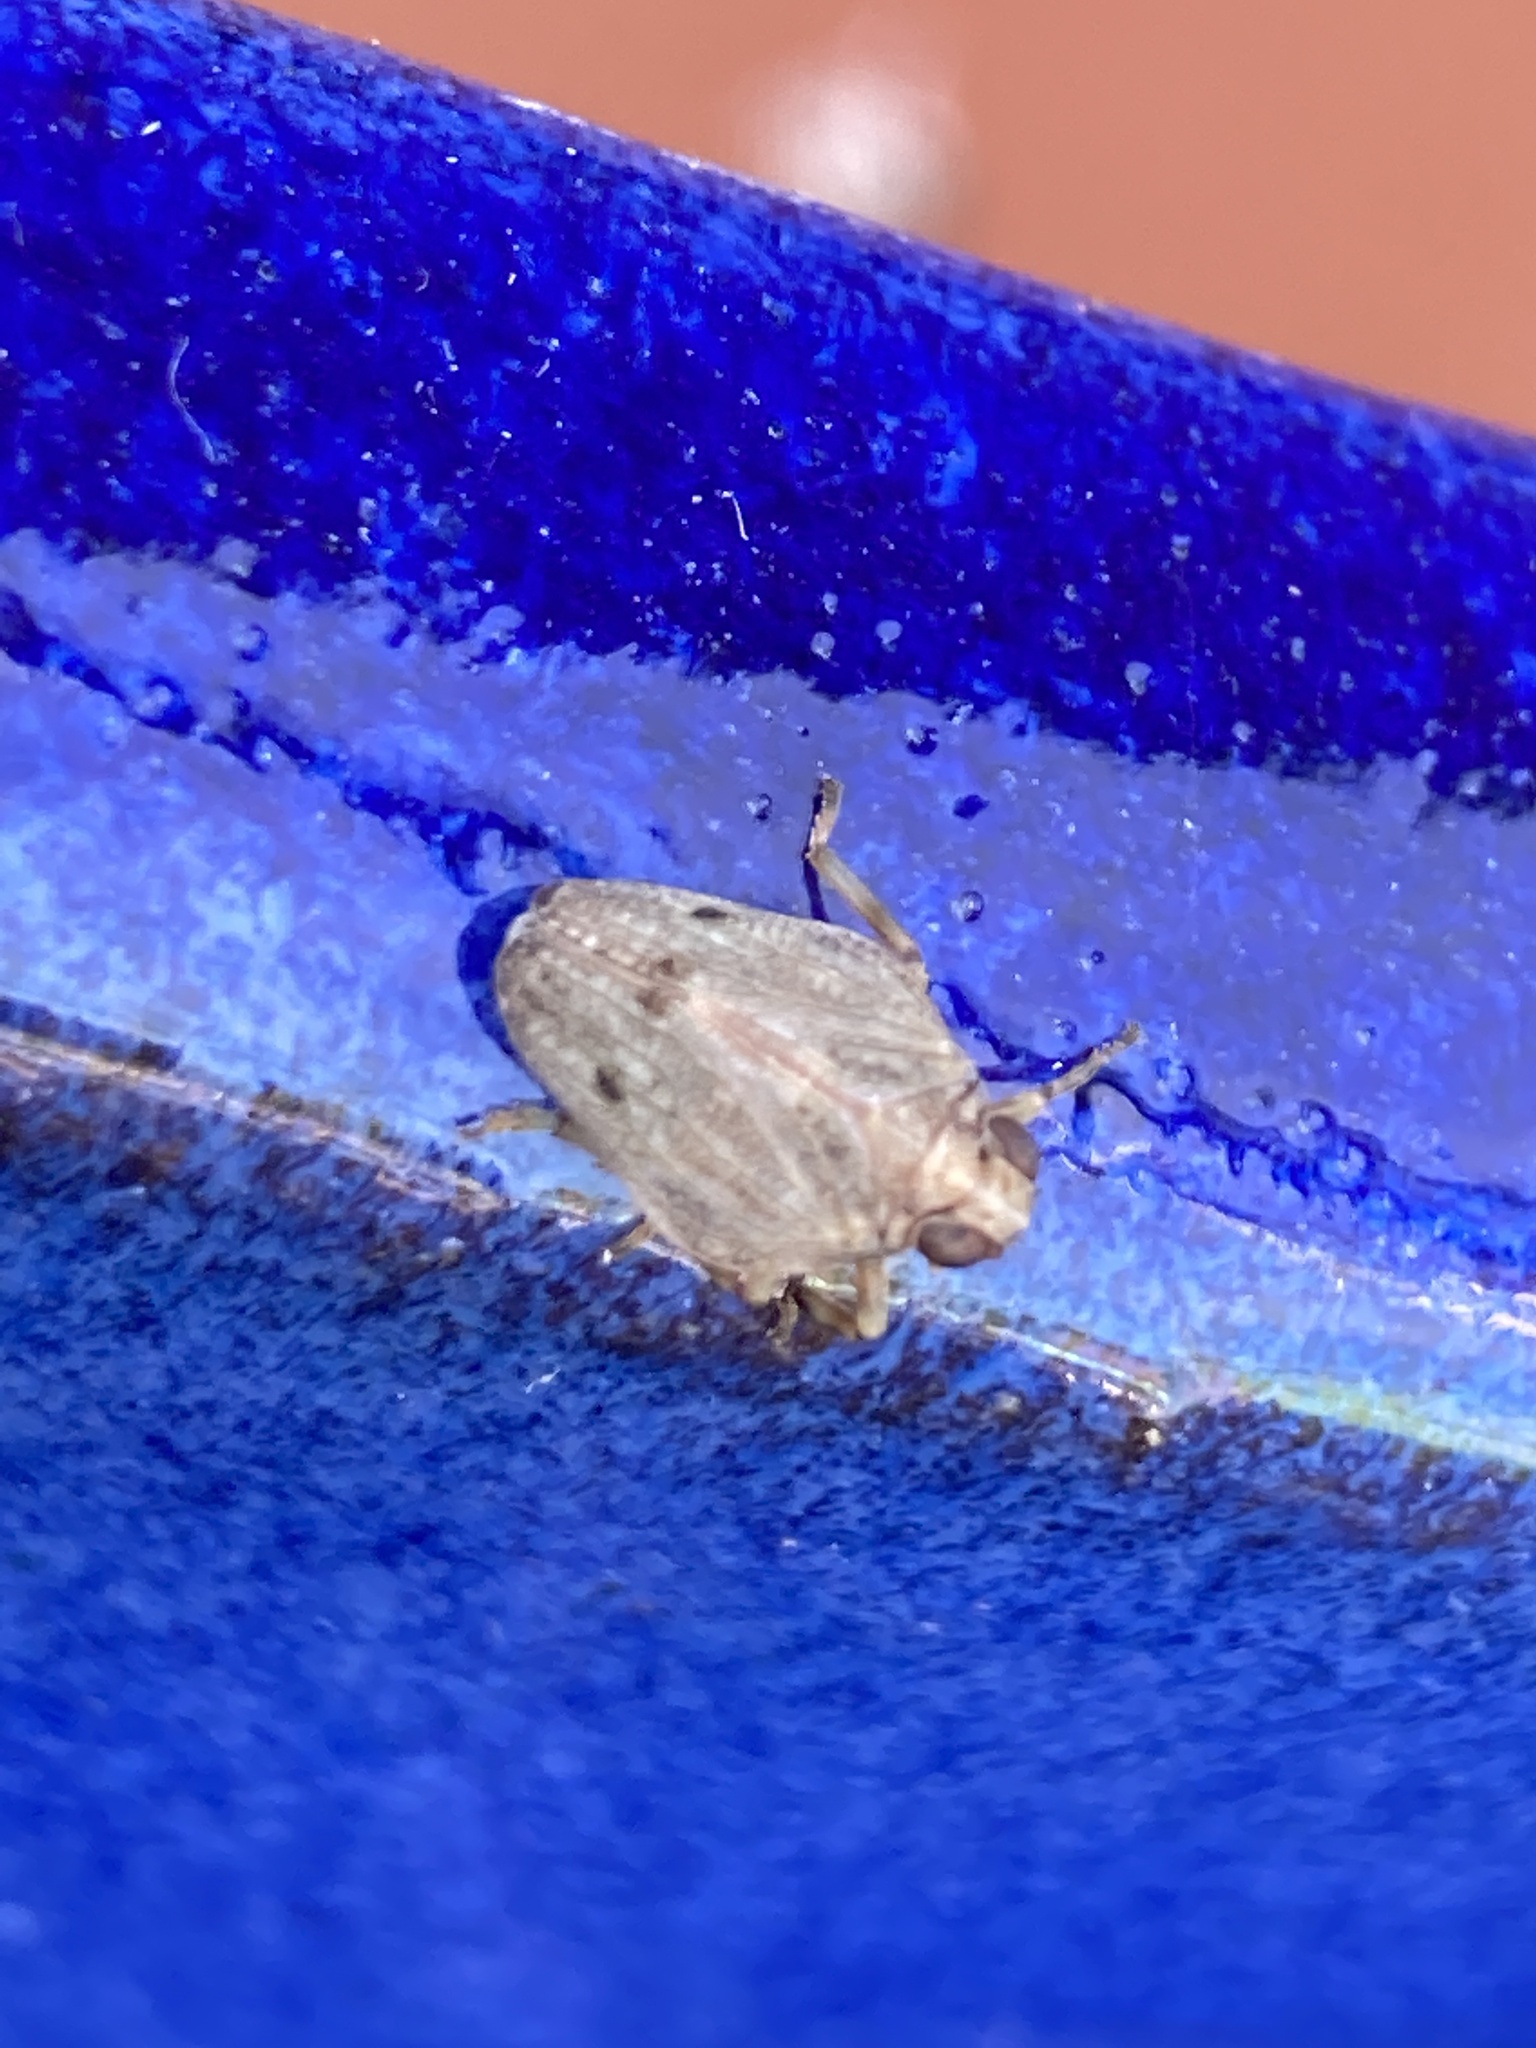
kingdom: Animalia
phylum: Arthropoda
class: Insecta
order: Hemiptera
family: Issidae
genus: Issus
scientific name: Issus coleoptratus
